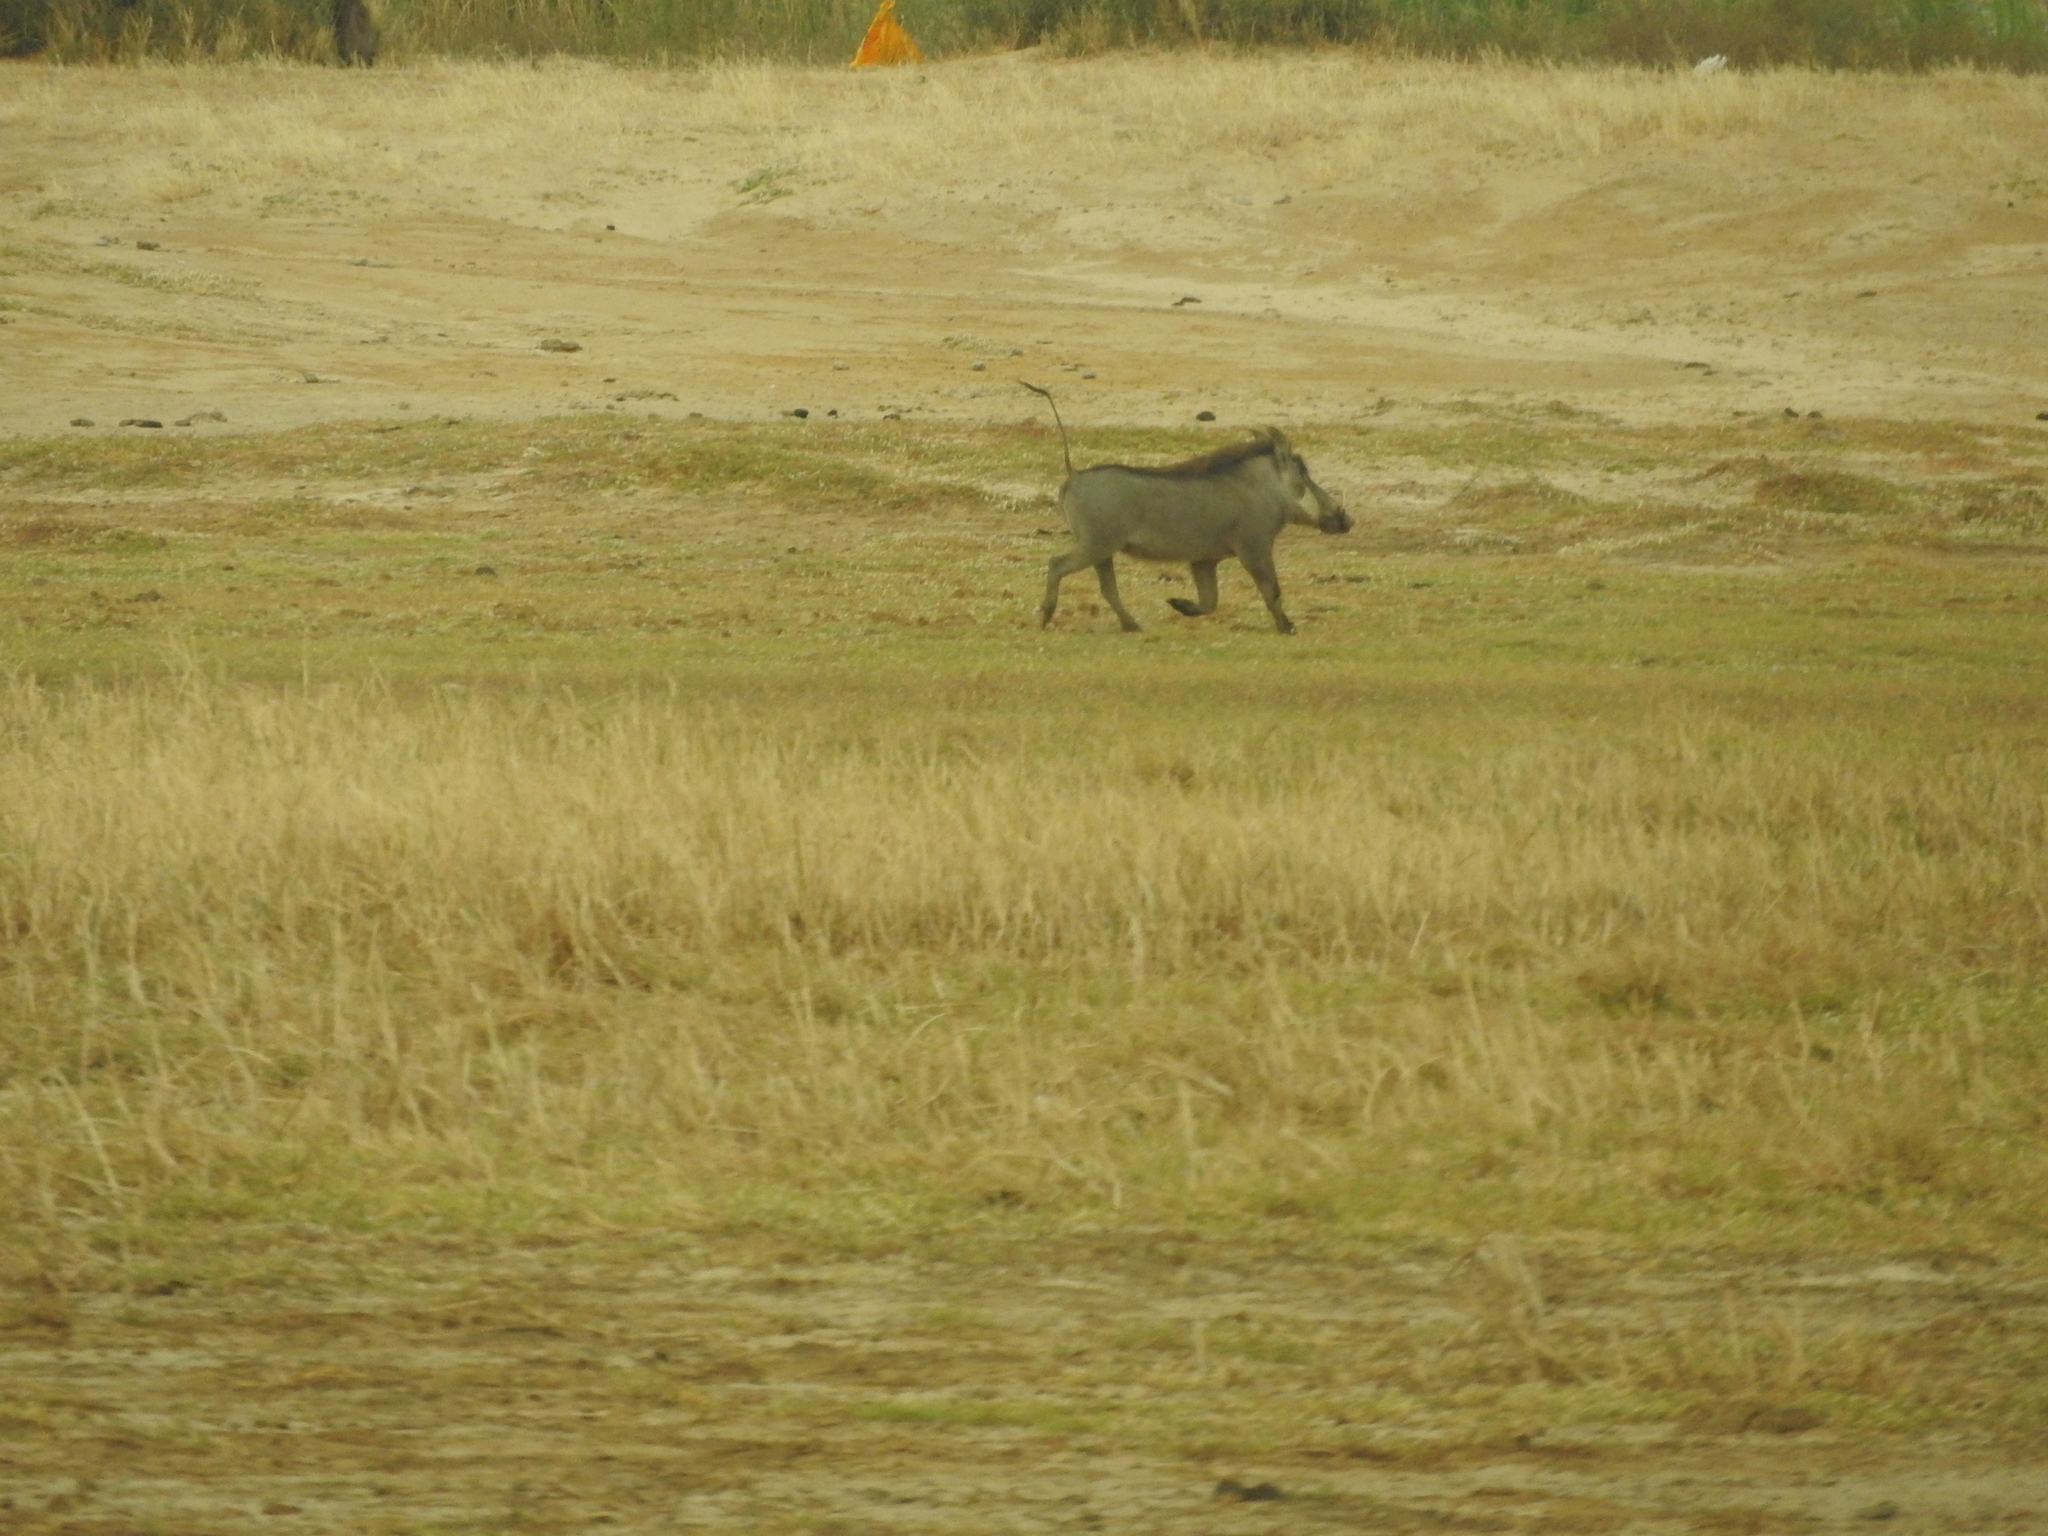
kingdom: Animalia
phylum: Chordata
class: Mammalia
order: Artiodactyla
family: Suidae
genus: Phacochoerus
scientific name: Phacochoerus africanus
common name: Common warthog
